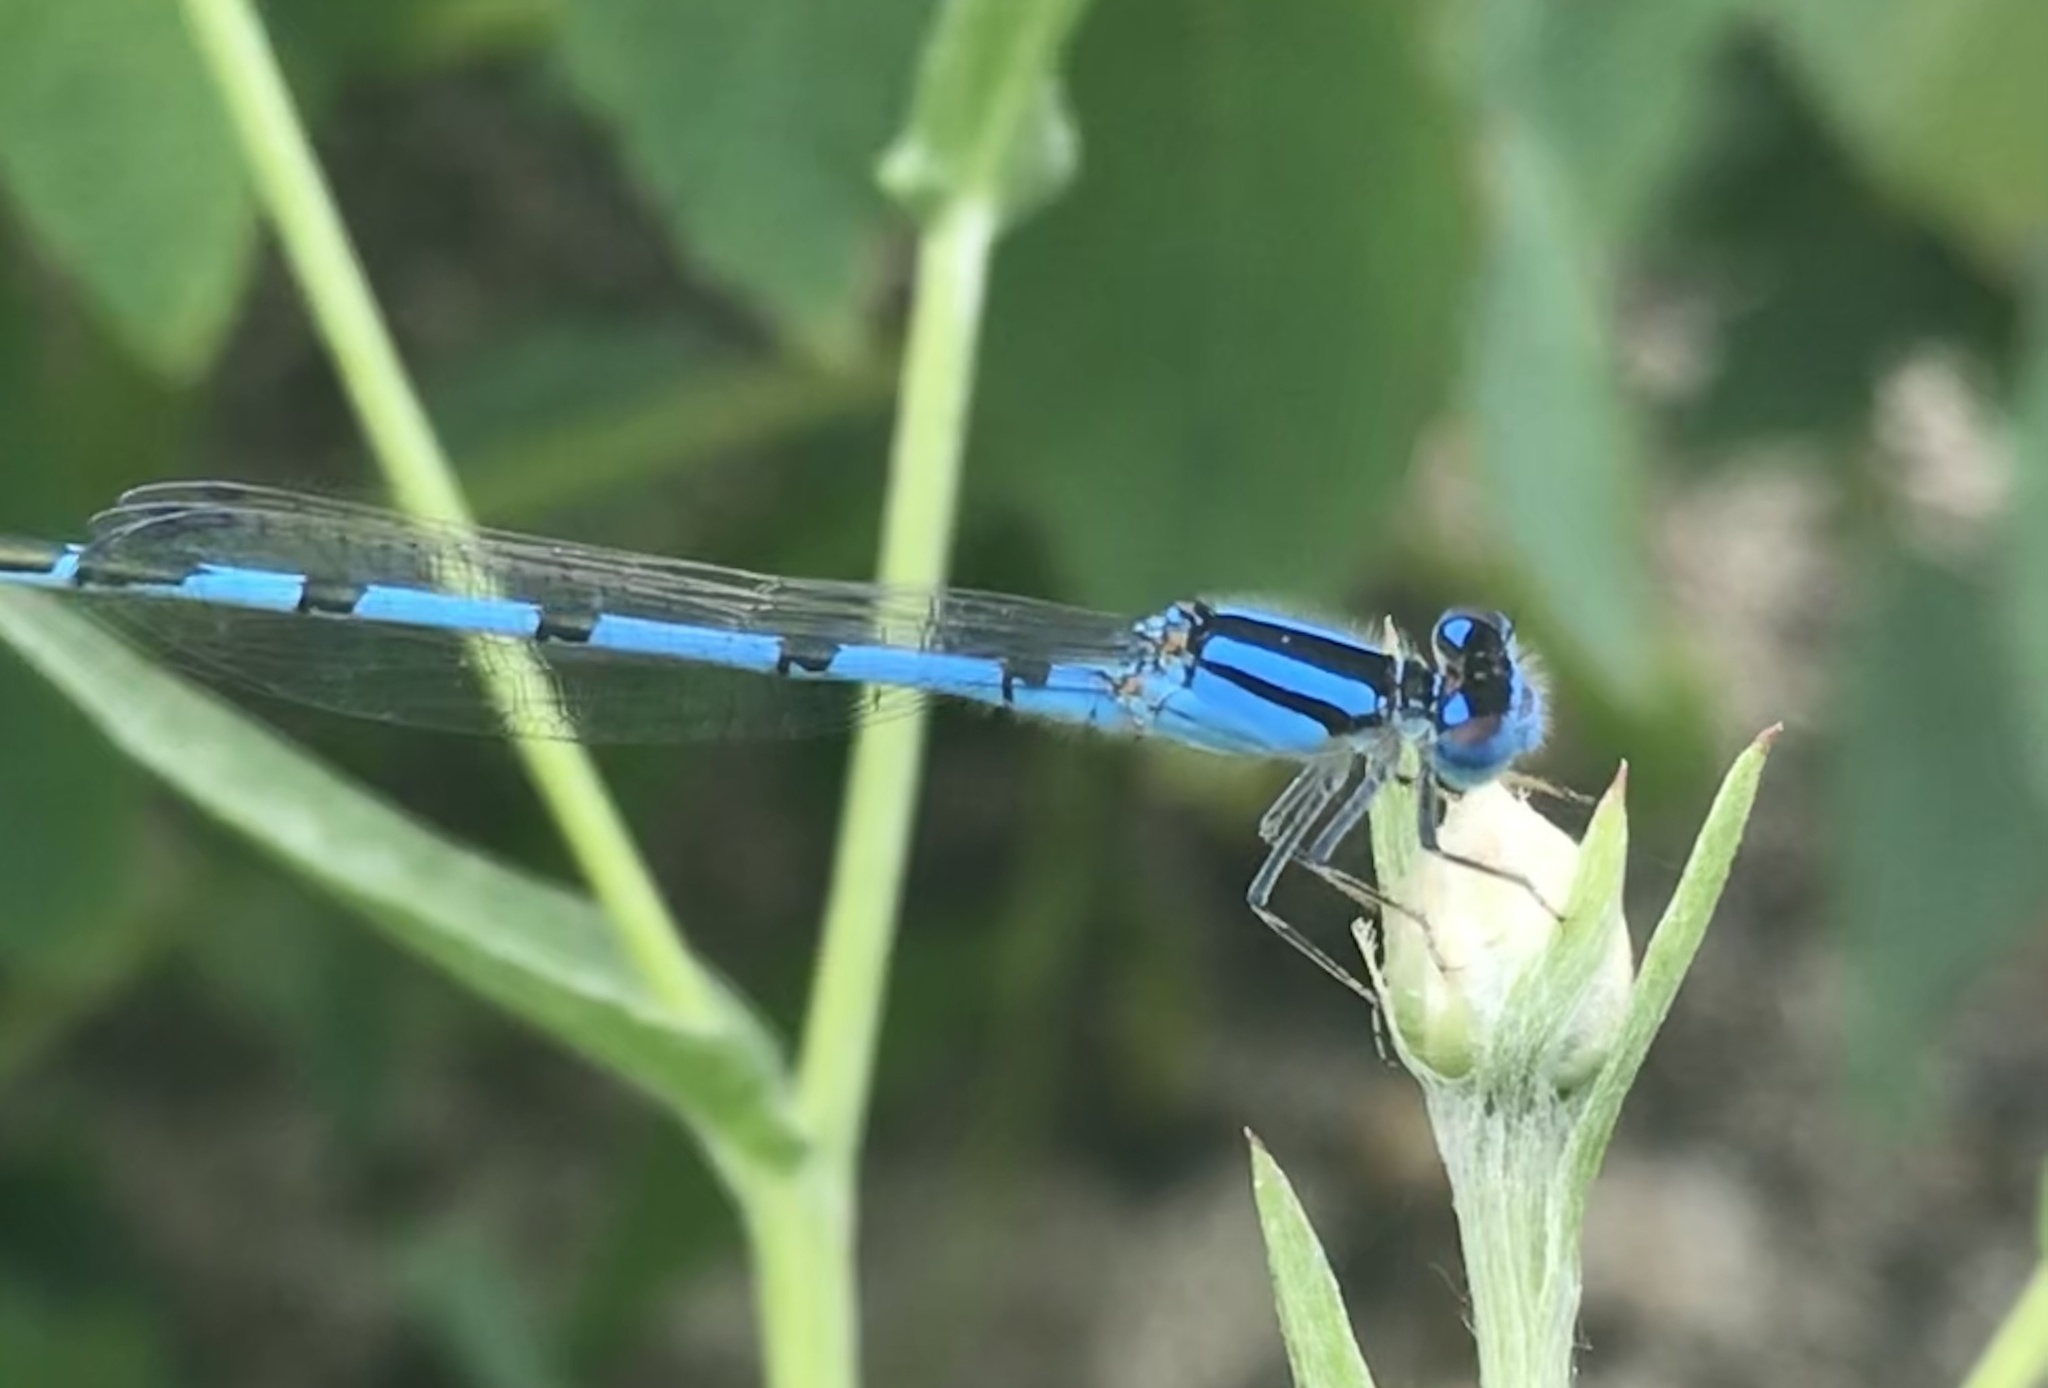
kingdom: Animalia
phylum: Arthropoda
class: Insecta
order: Odonata
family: Coenagrionidae
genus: Enallagma
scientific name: Enallagma civile
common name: Damselfly
